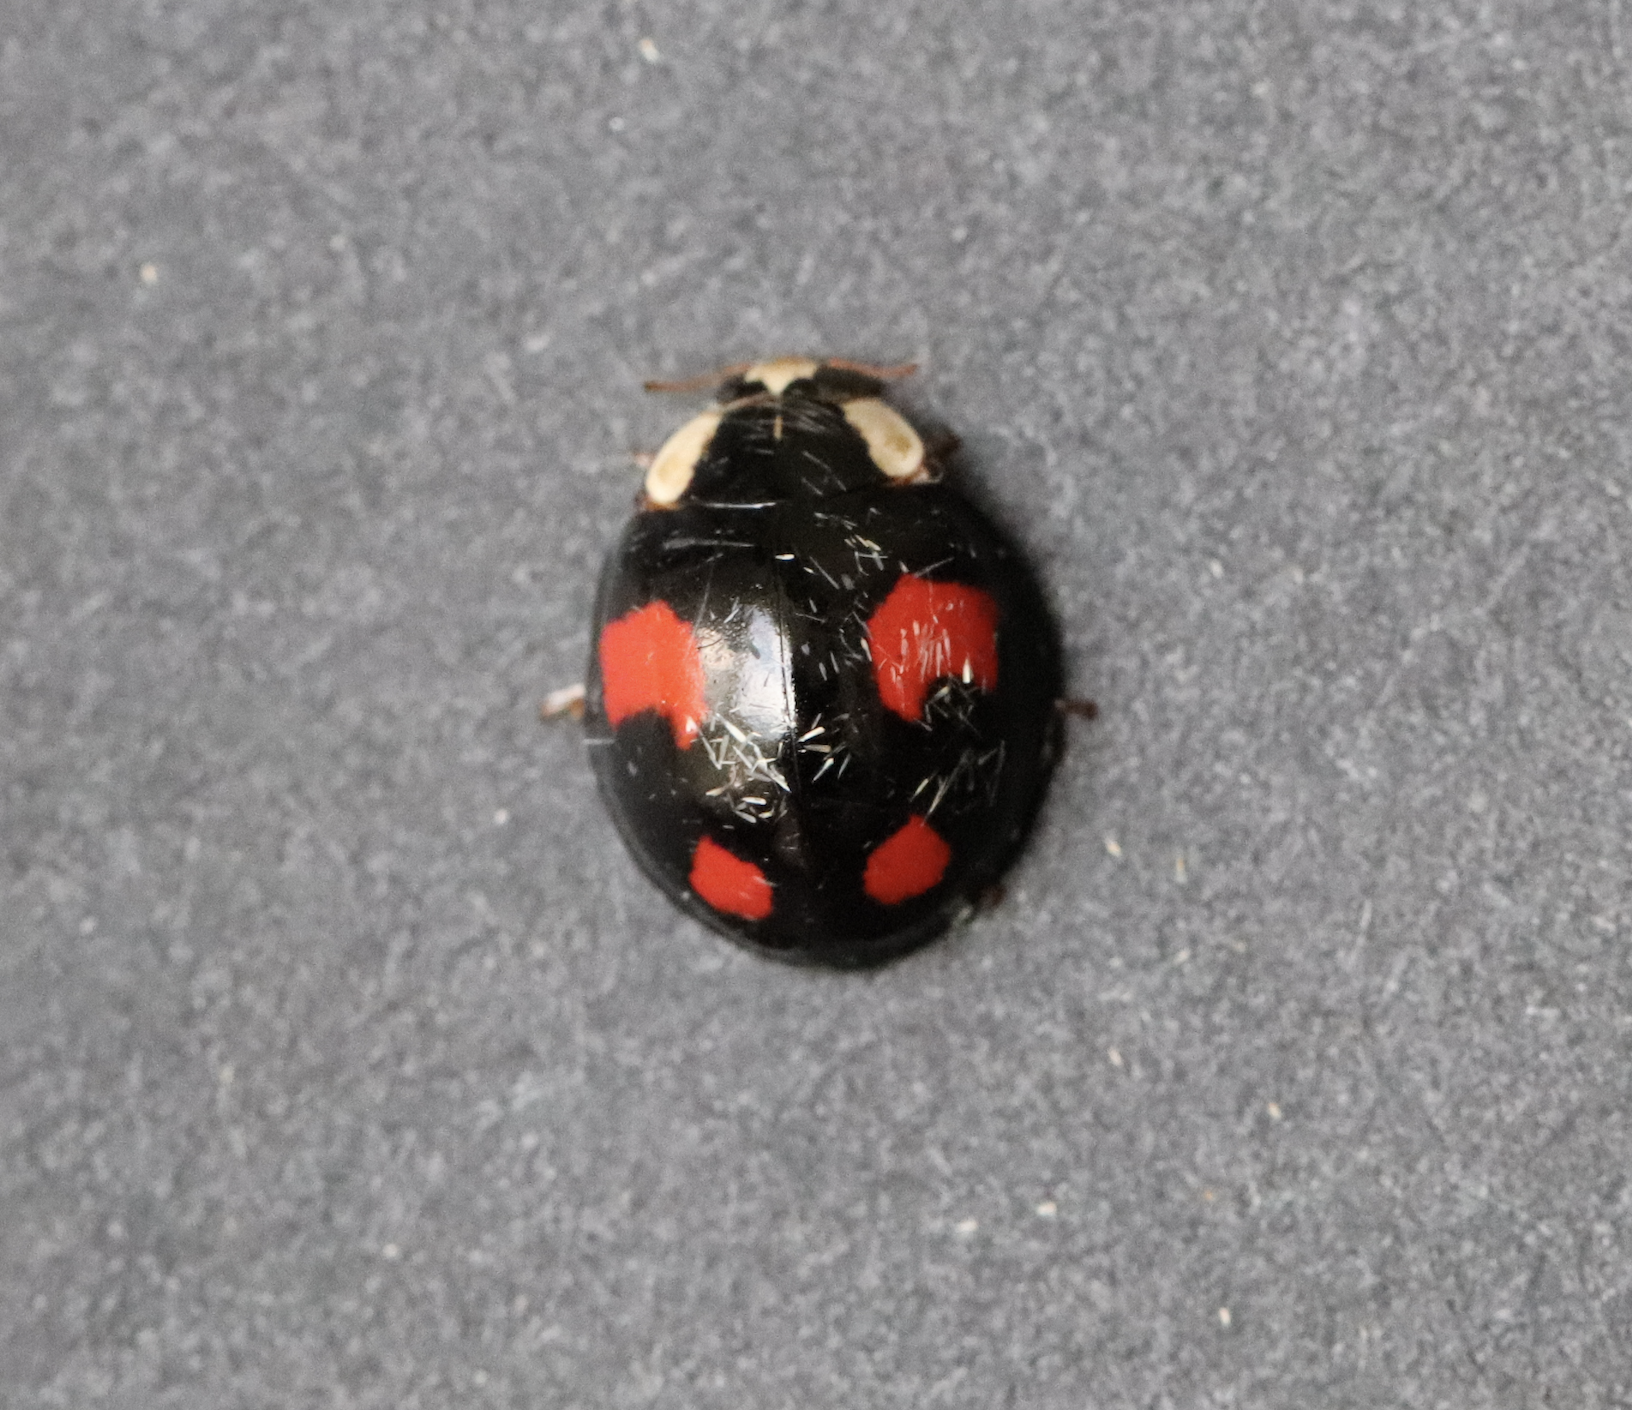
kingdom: Animalia
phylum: Arthropoda
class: Insecta
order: Coleoptera
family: Coccinellidae
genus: Harmonia
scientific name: Harmonia axyridis
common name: Harlequin ladybird
